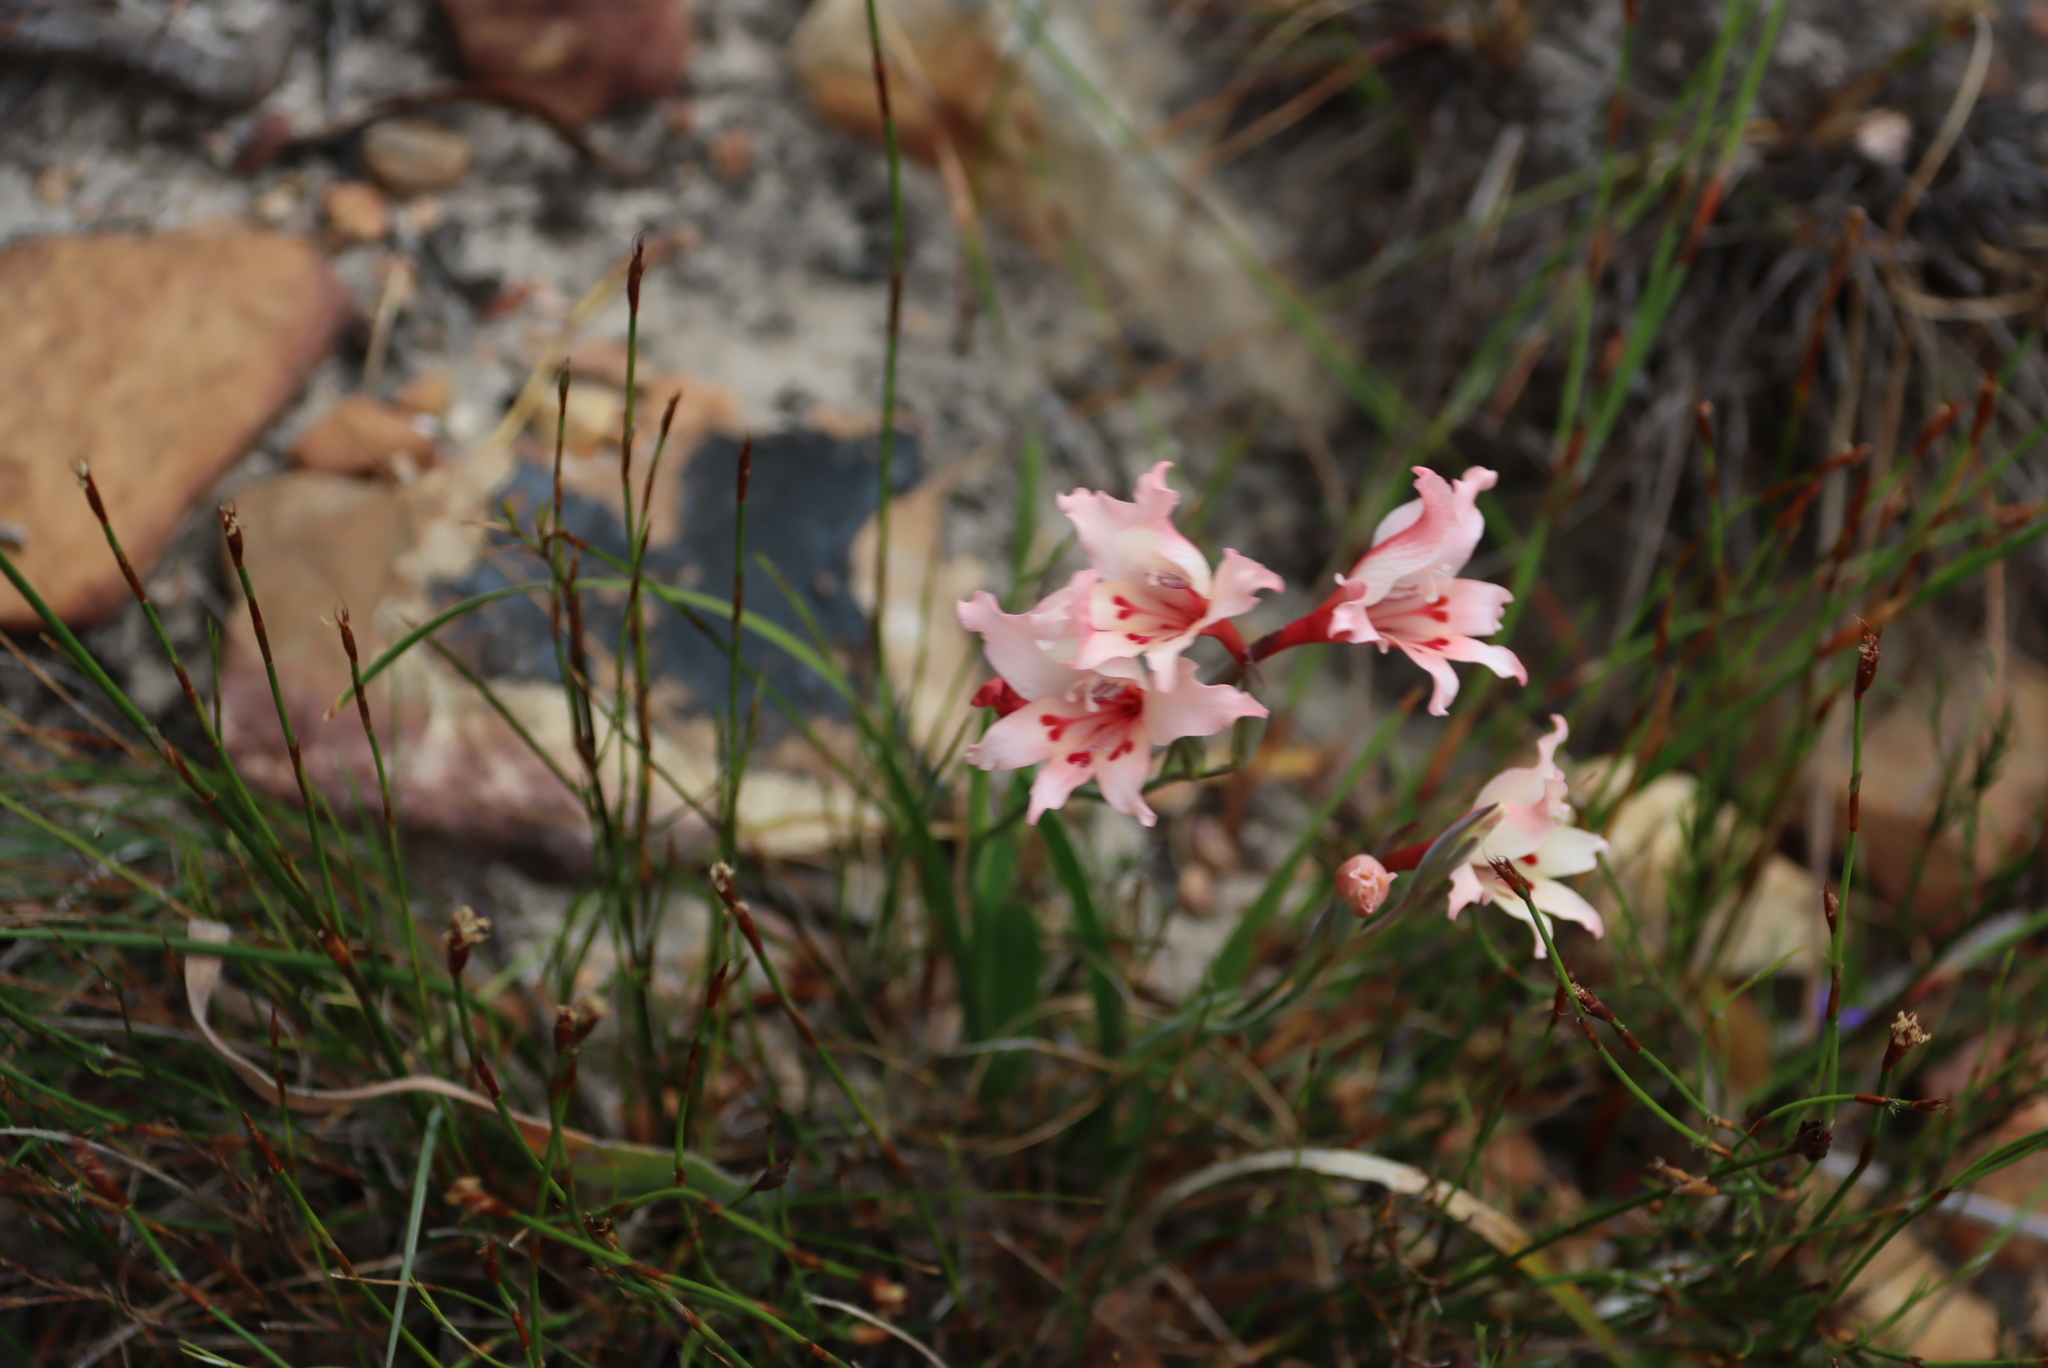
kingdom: Plantae
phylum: Tracheophyta
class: Liliopsida
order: Asparagales
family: Iridaceae
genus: Gladiolus
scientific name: Gladiolus carneus
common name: Painted-lady
